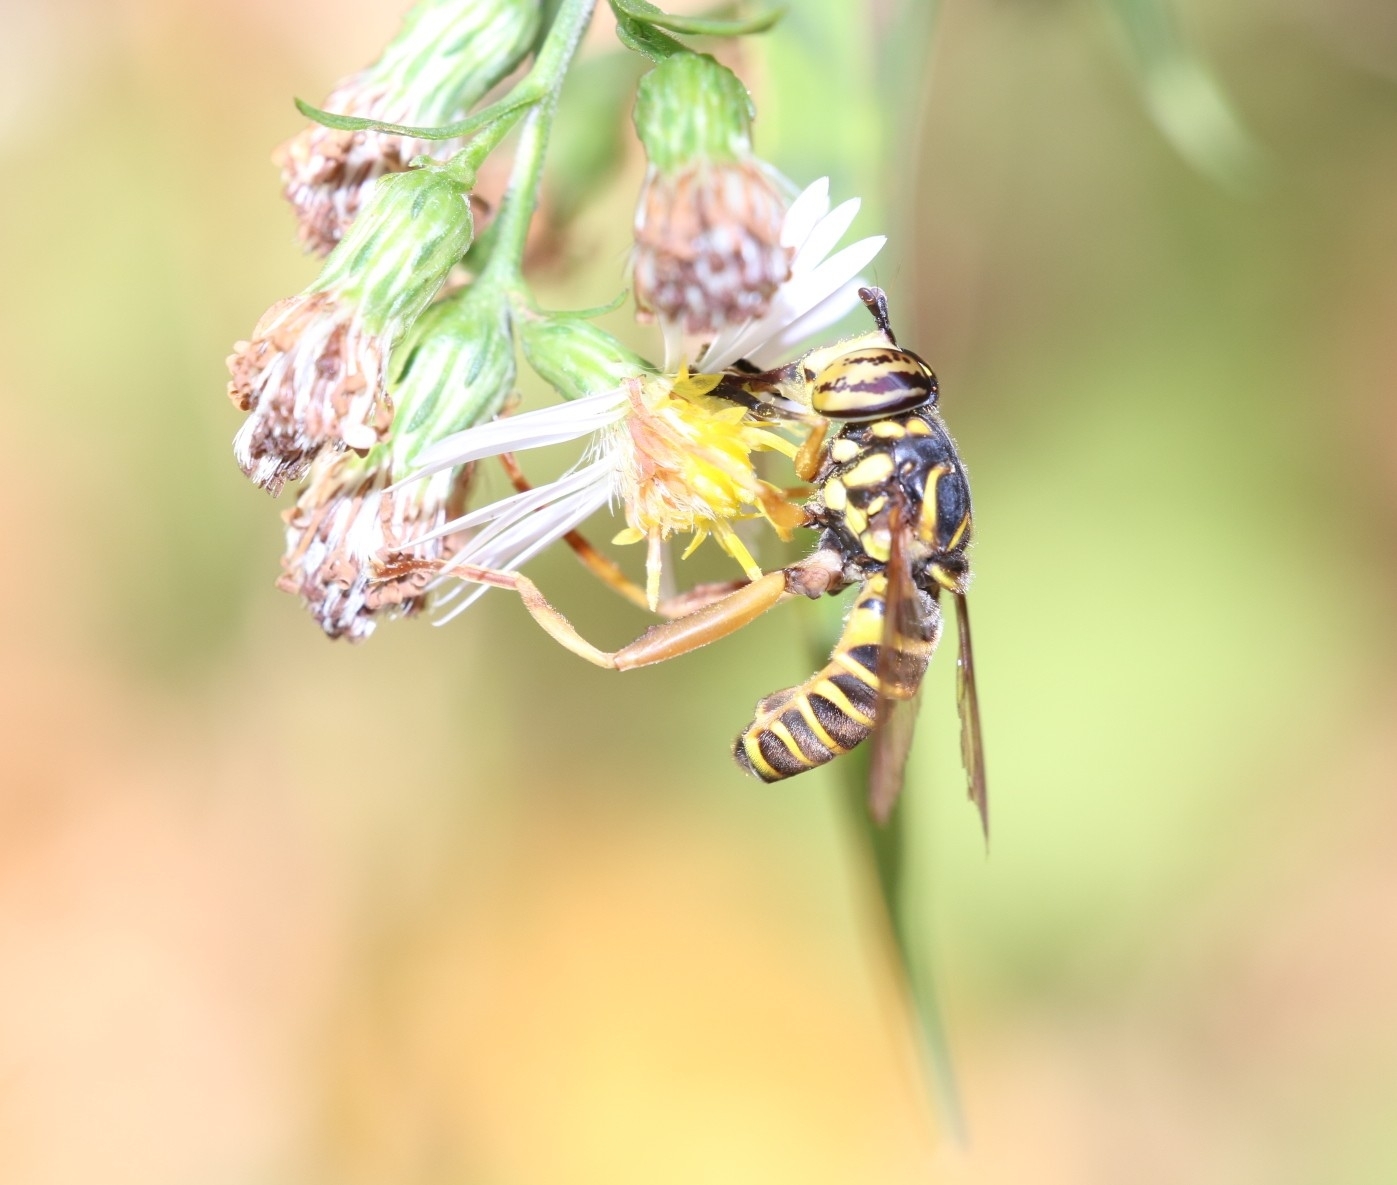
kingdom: Animalia
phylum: Arthropoda
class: Insecta
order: Diptera
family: Syrphidae
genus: Spilomyia
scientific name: Spilomyia longicornis
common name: Eastern hornet fly
